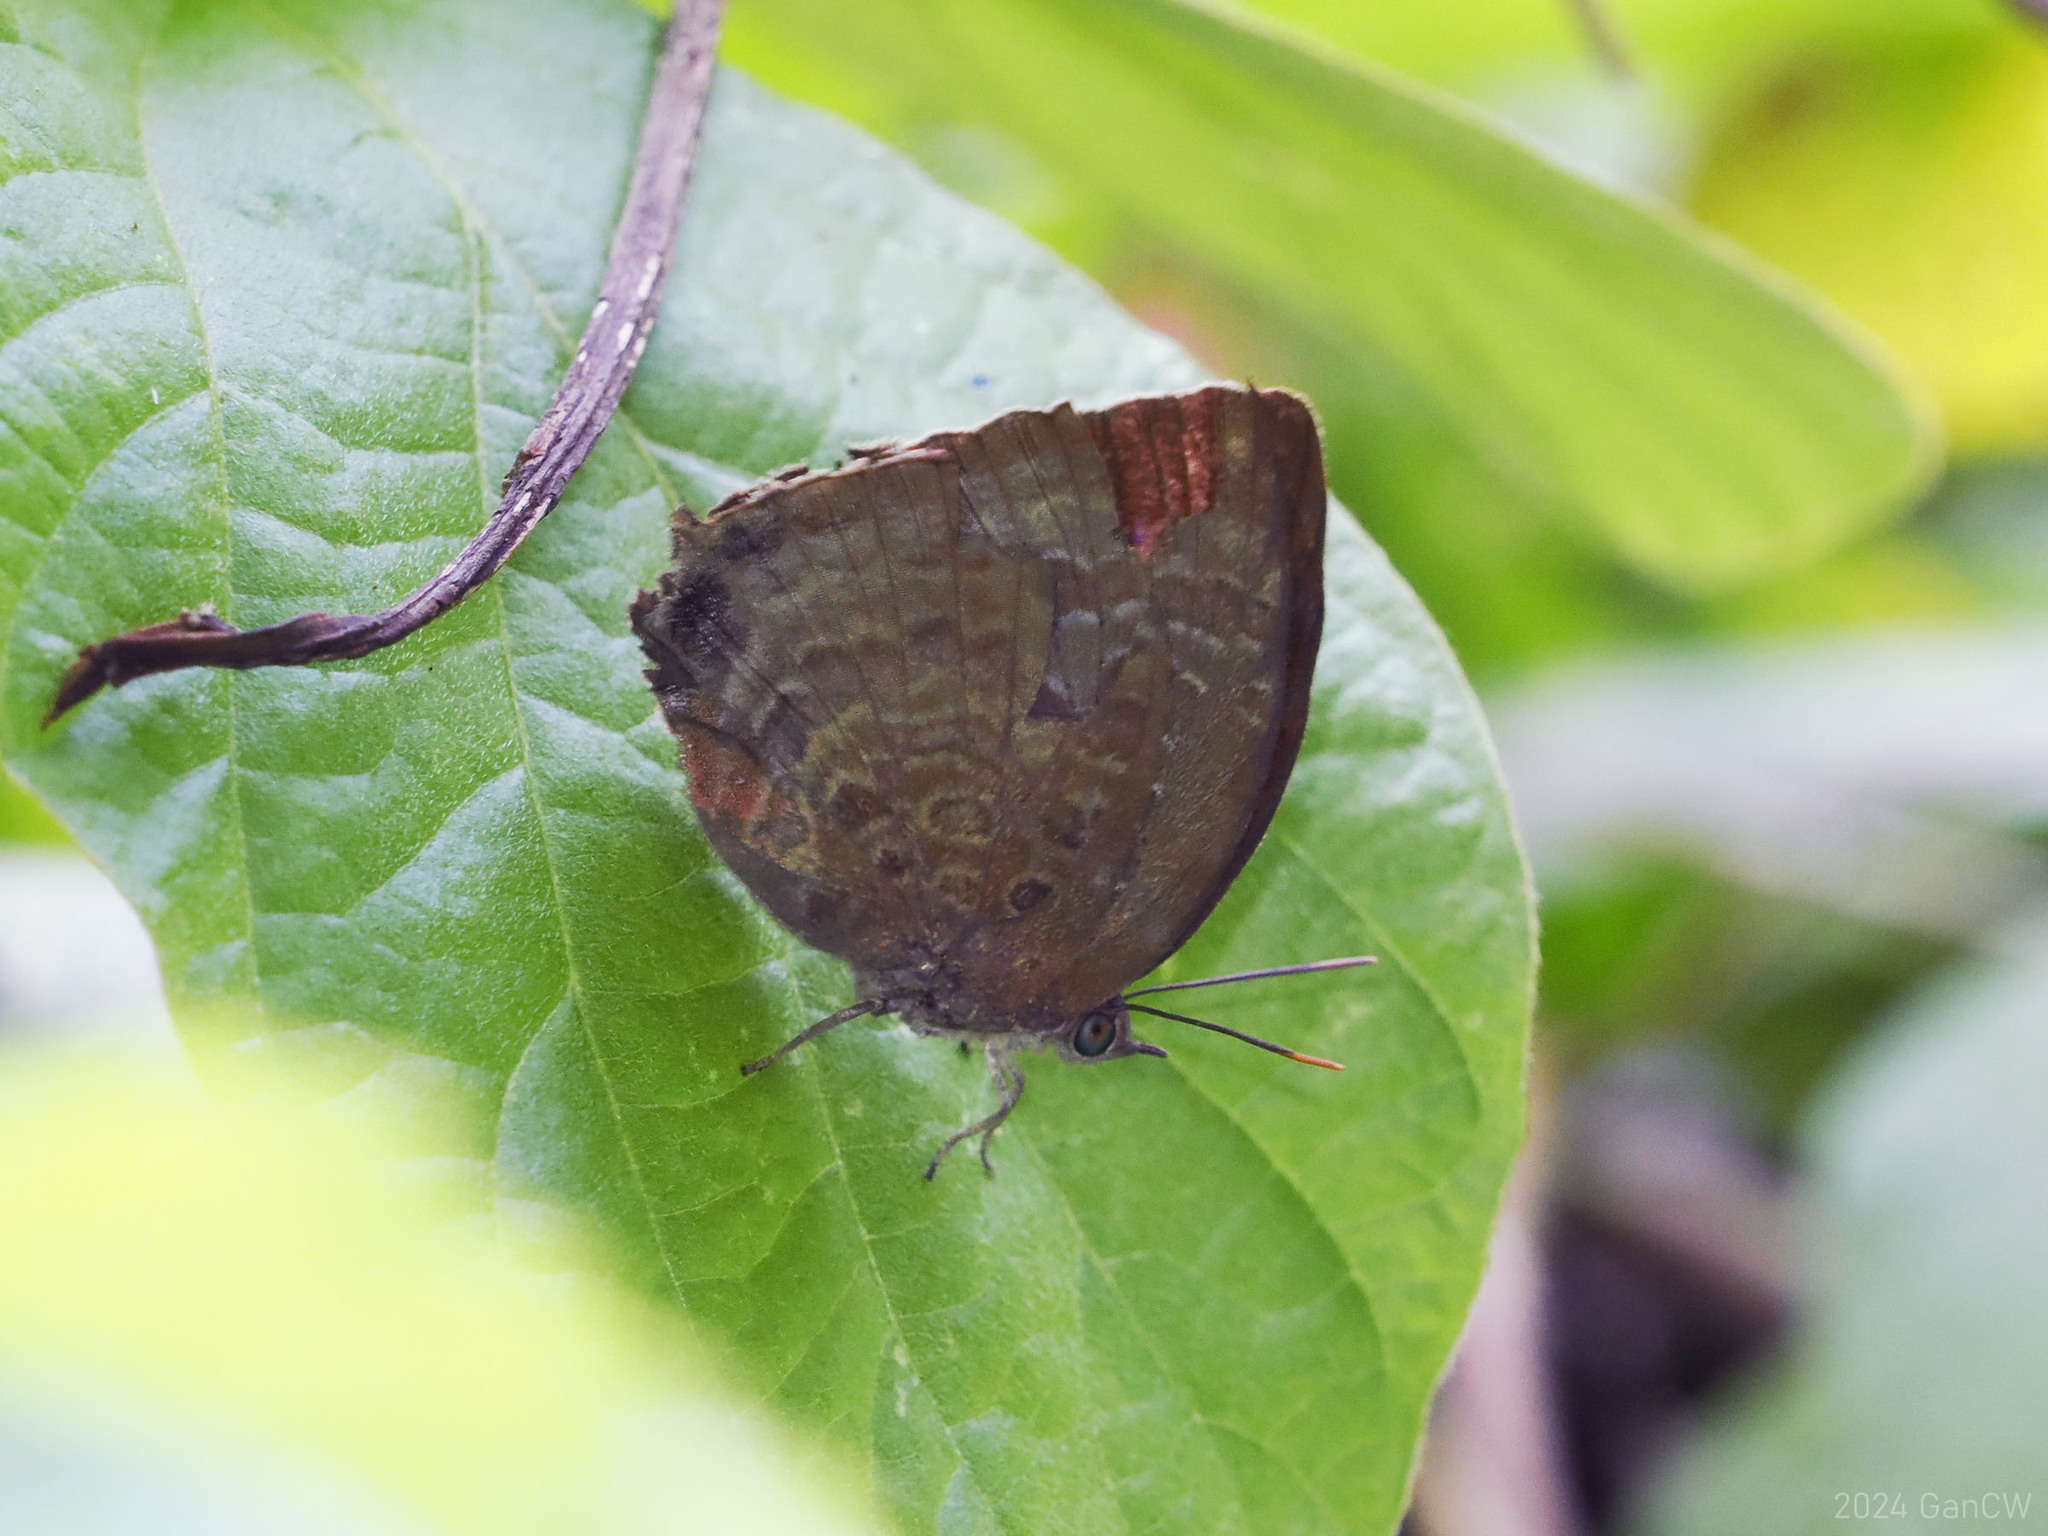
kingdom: Animalia
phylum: Arthropoda
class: Insecta
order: Lepidoptera
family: Lycaenidae
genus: Arhopala
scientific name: Arhopala centaurus
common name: Dull oak-blue
